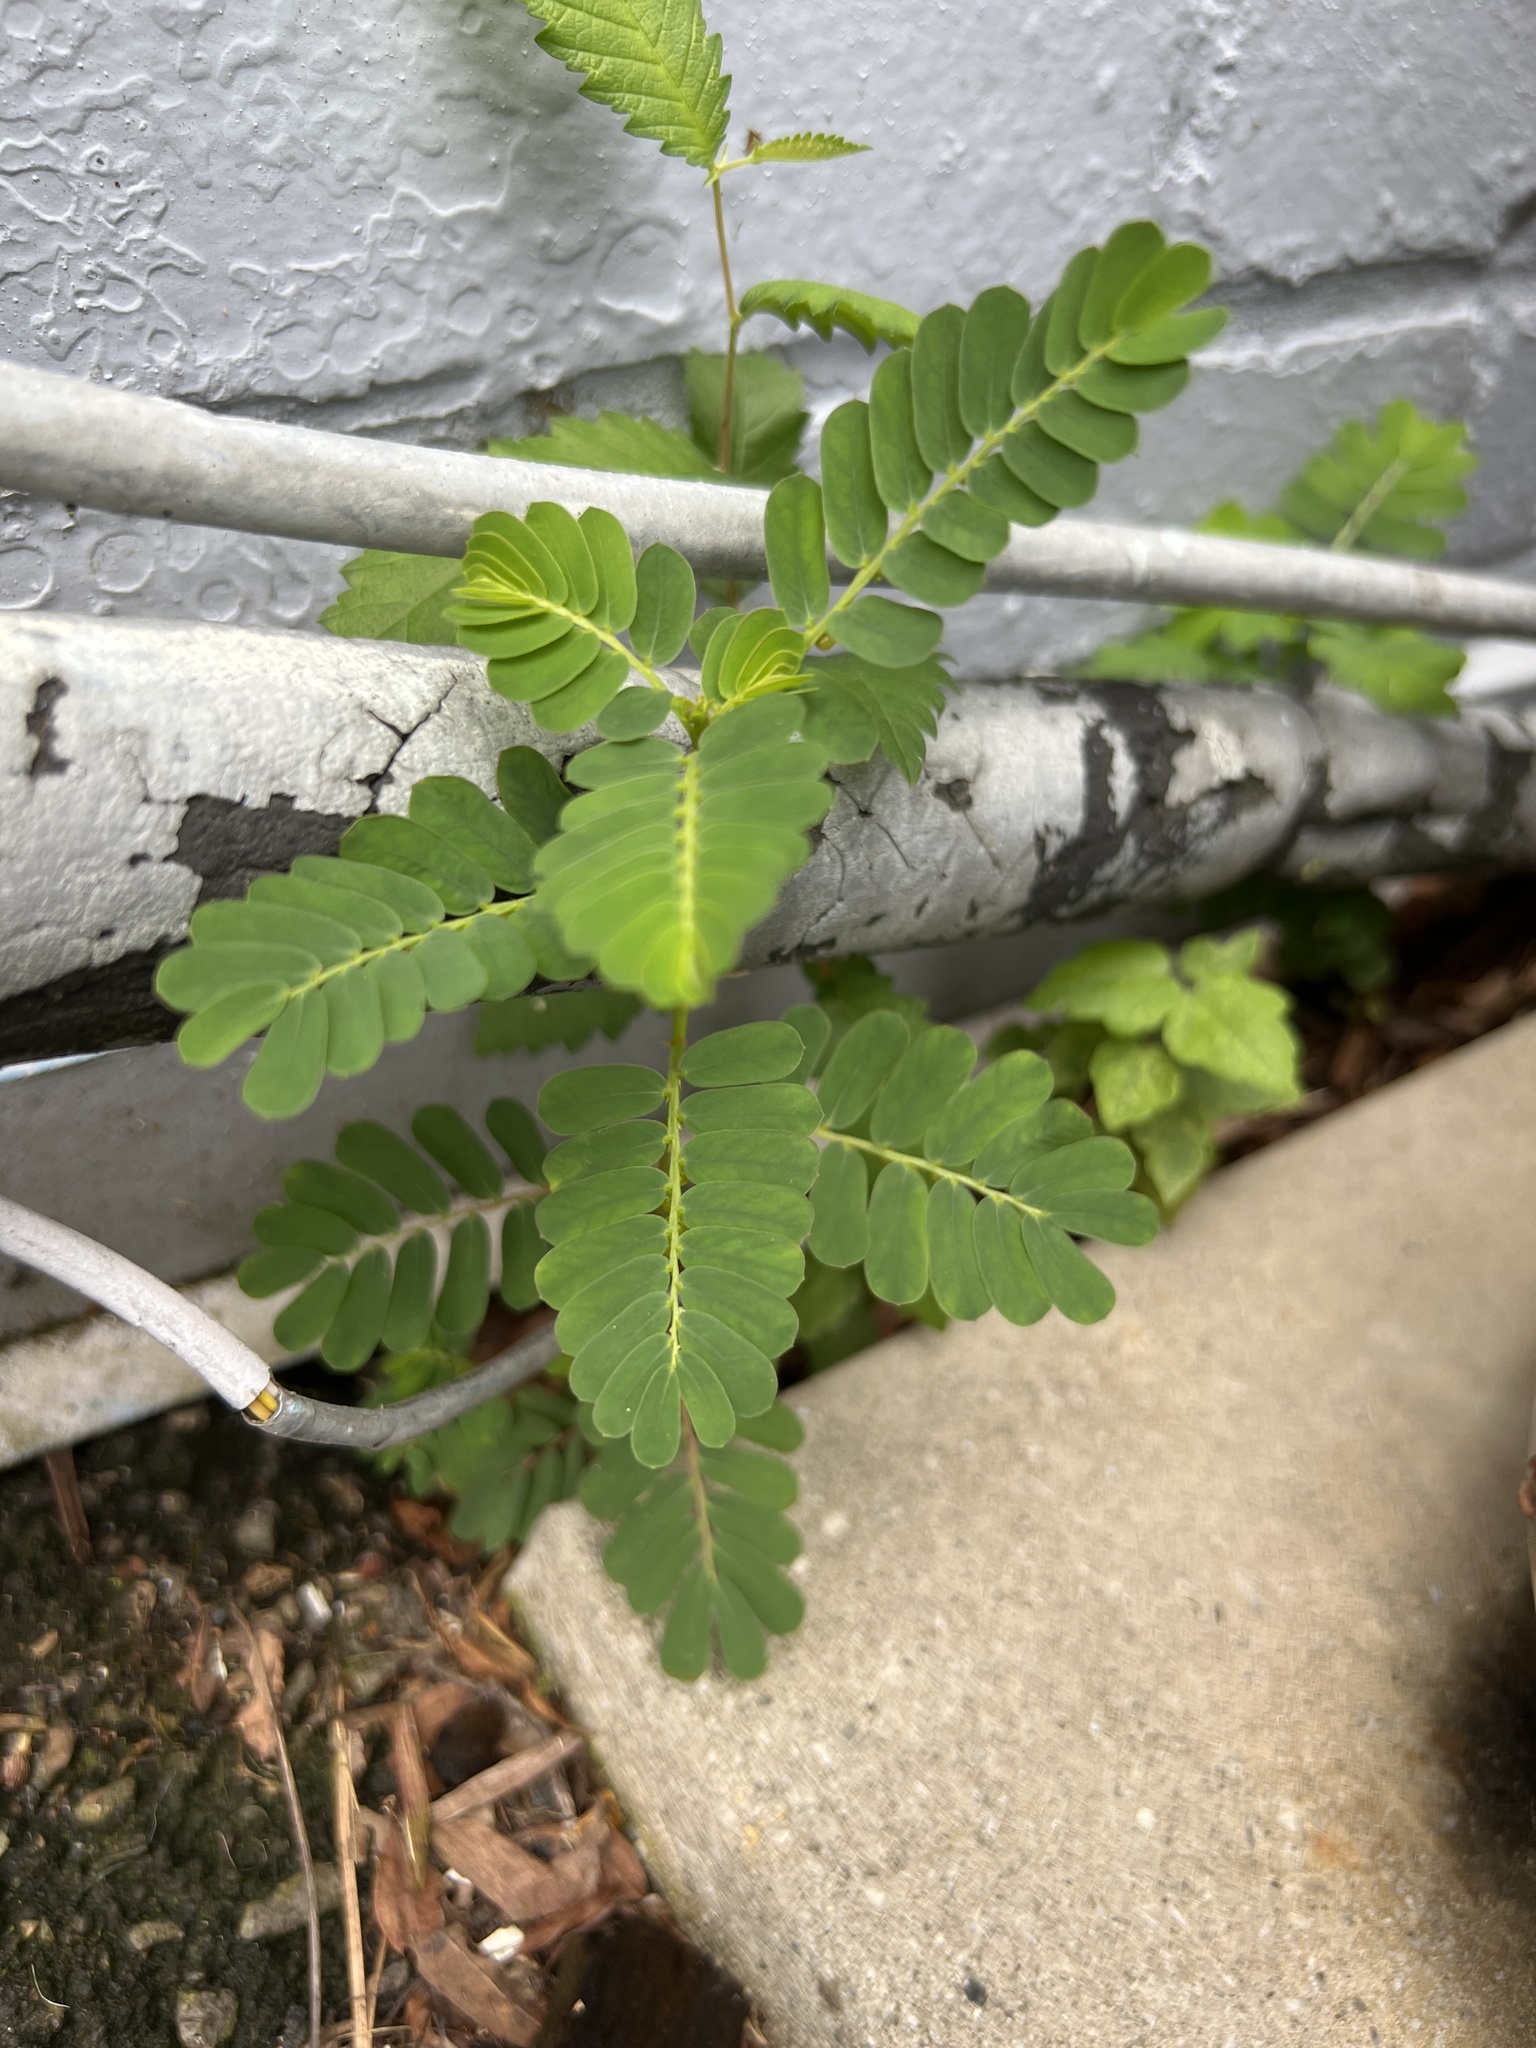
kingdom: Plantae
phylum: Tracheophyta
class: Magnoliopsida
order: Malpighiales
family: Phyllanthaceae
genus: Phyllanthus
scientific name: Phyllanthus urinaria
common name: Chamber bitter
